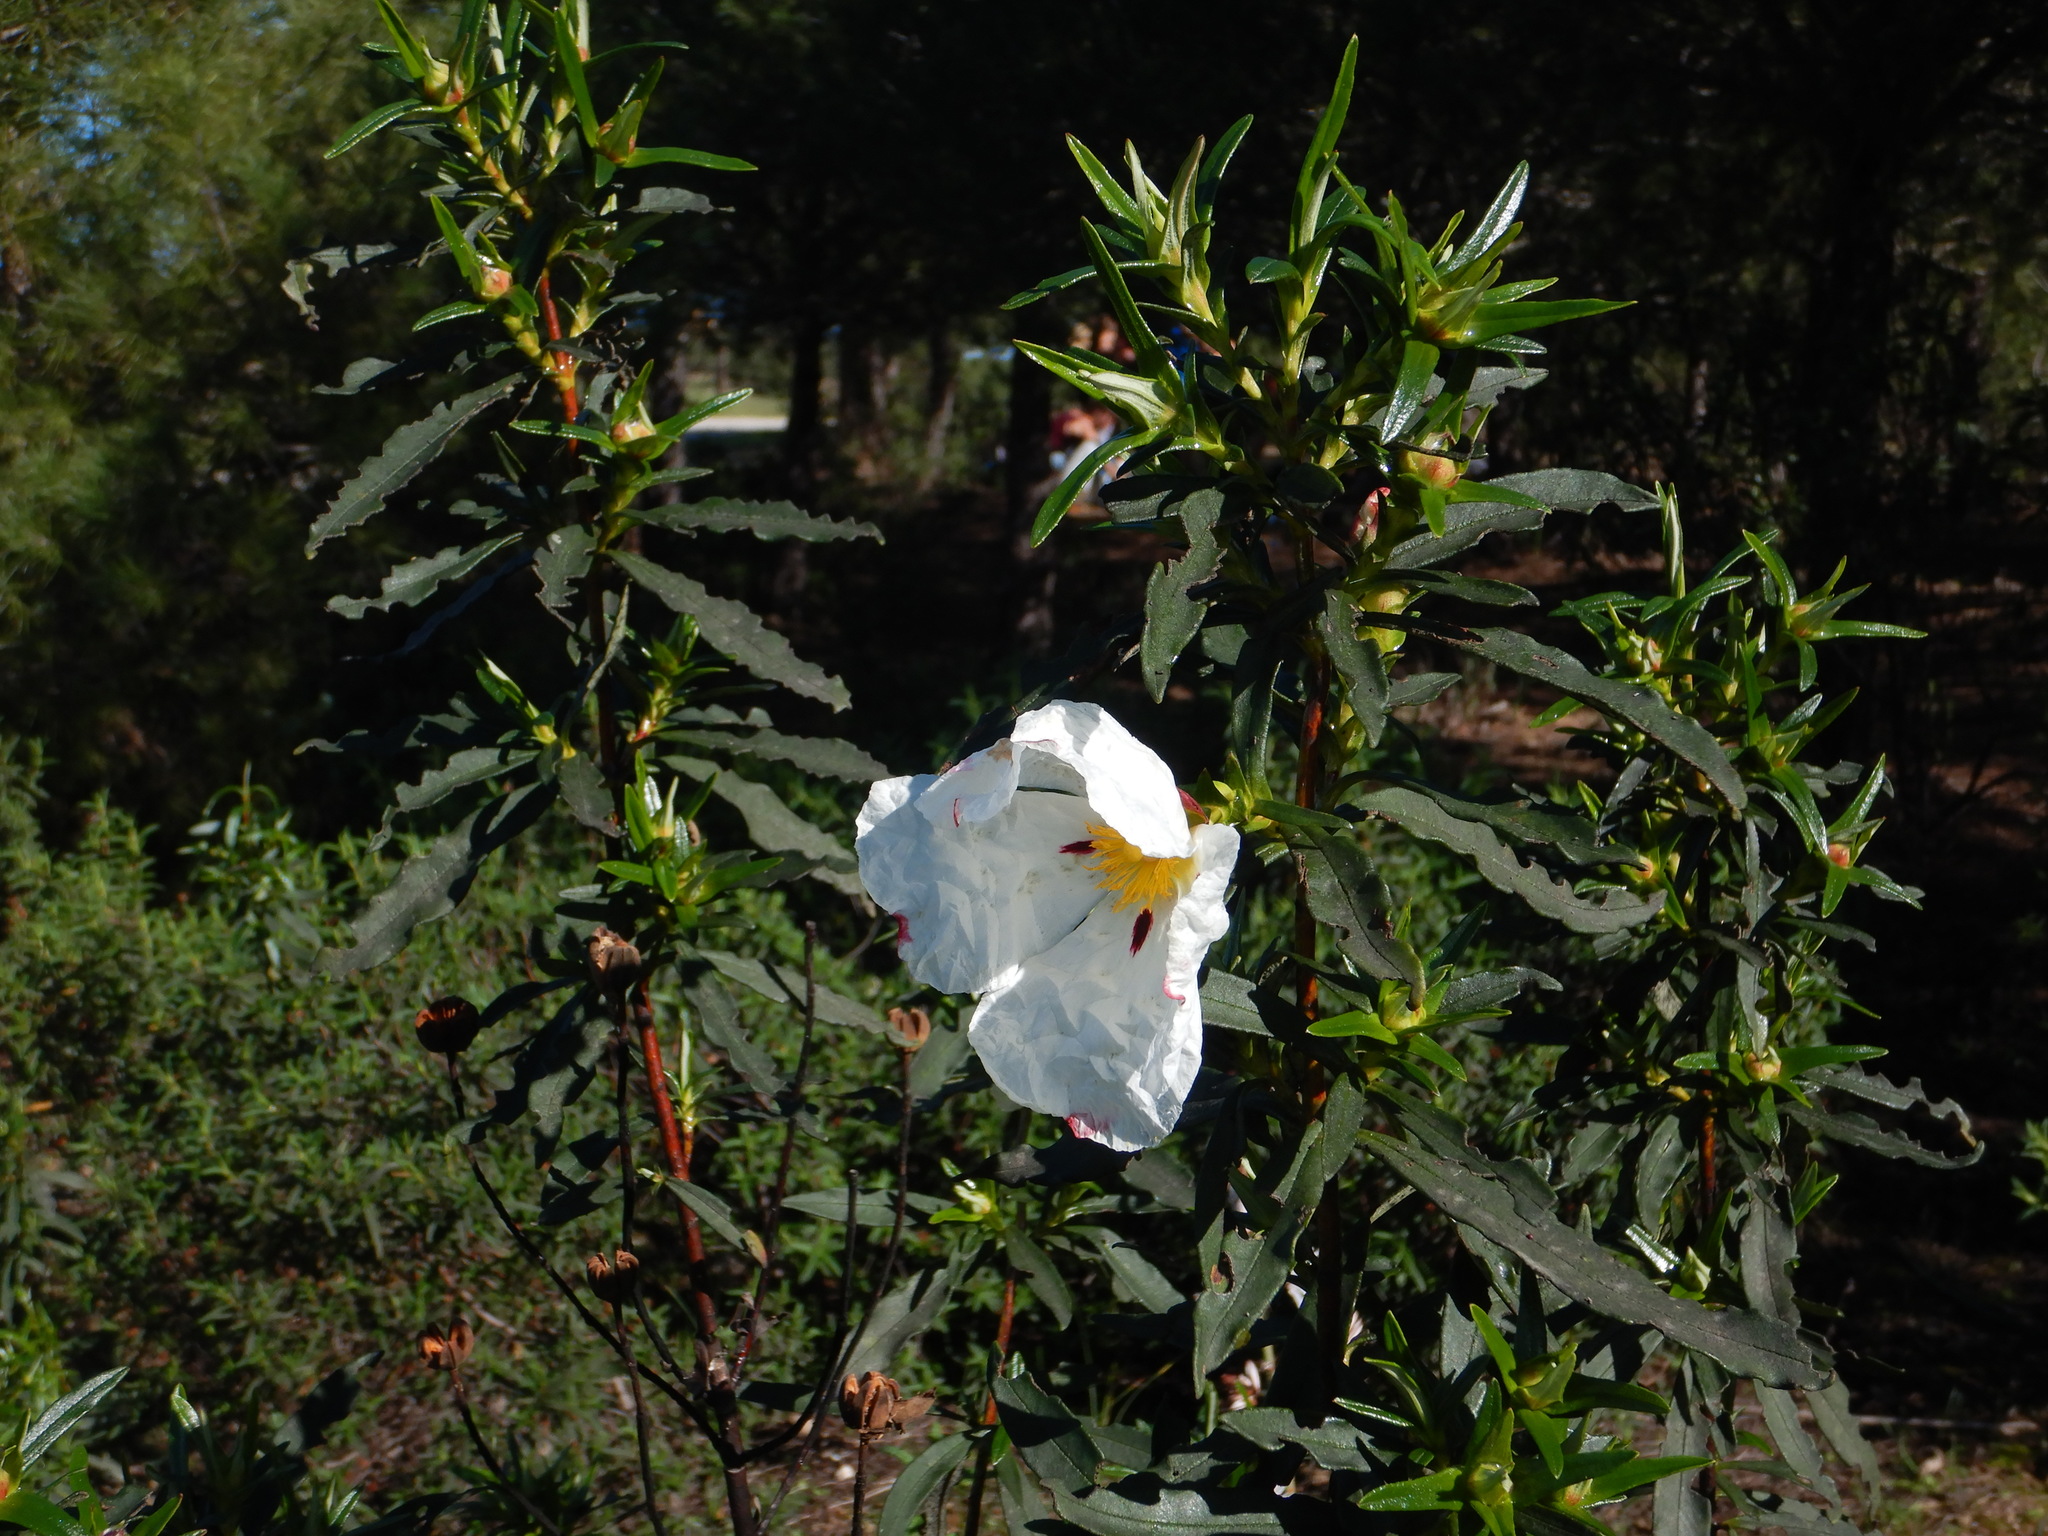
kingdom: Plantae
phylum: Tracheophyta
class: Magnoliopsida
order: Malvales
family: Cistaceae
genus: Cistus
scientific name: Cistus ladanifer
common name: Common gum cistus
